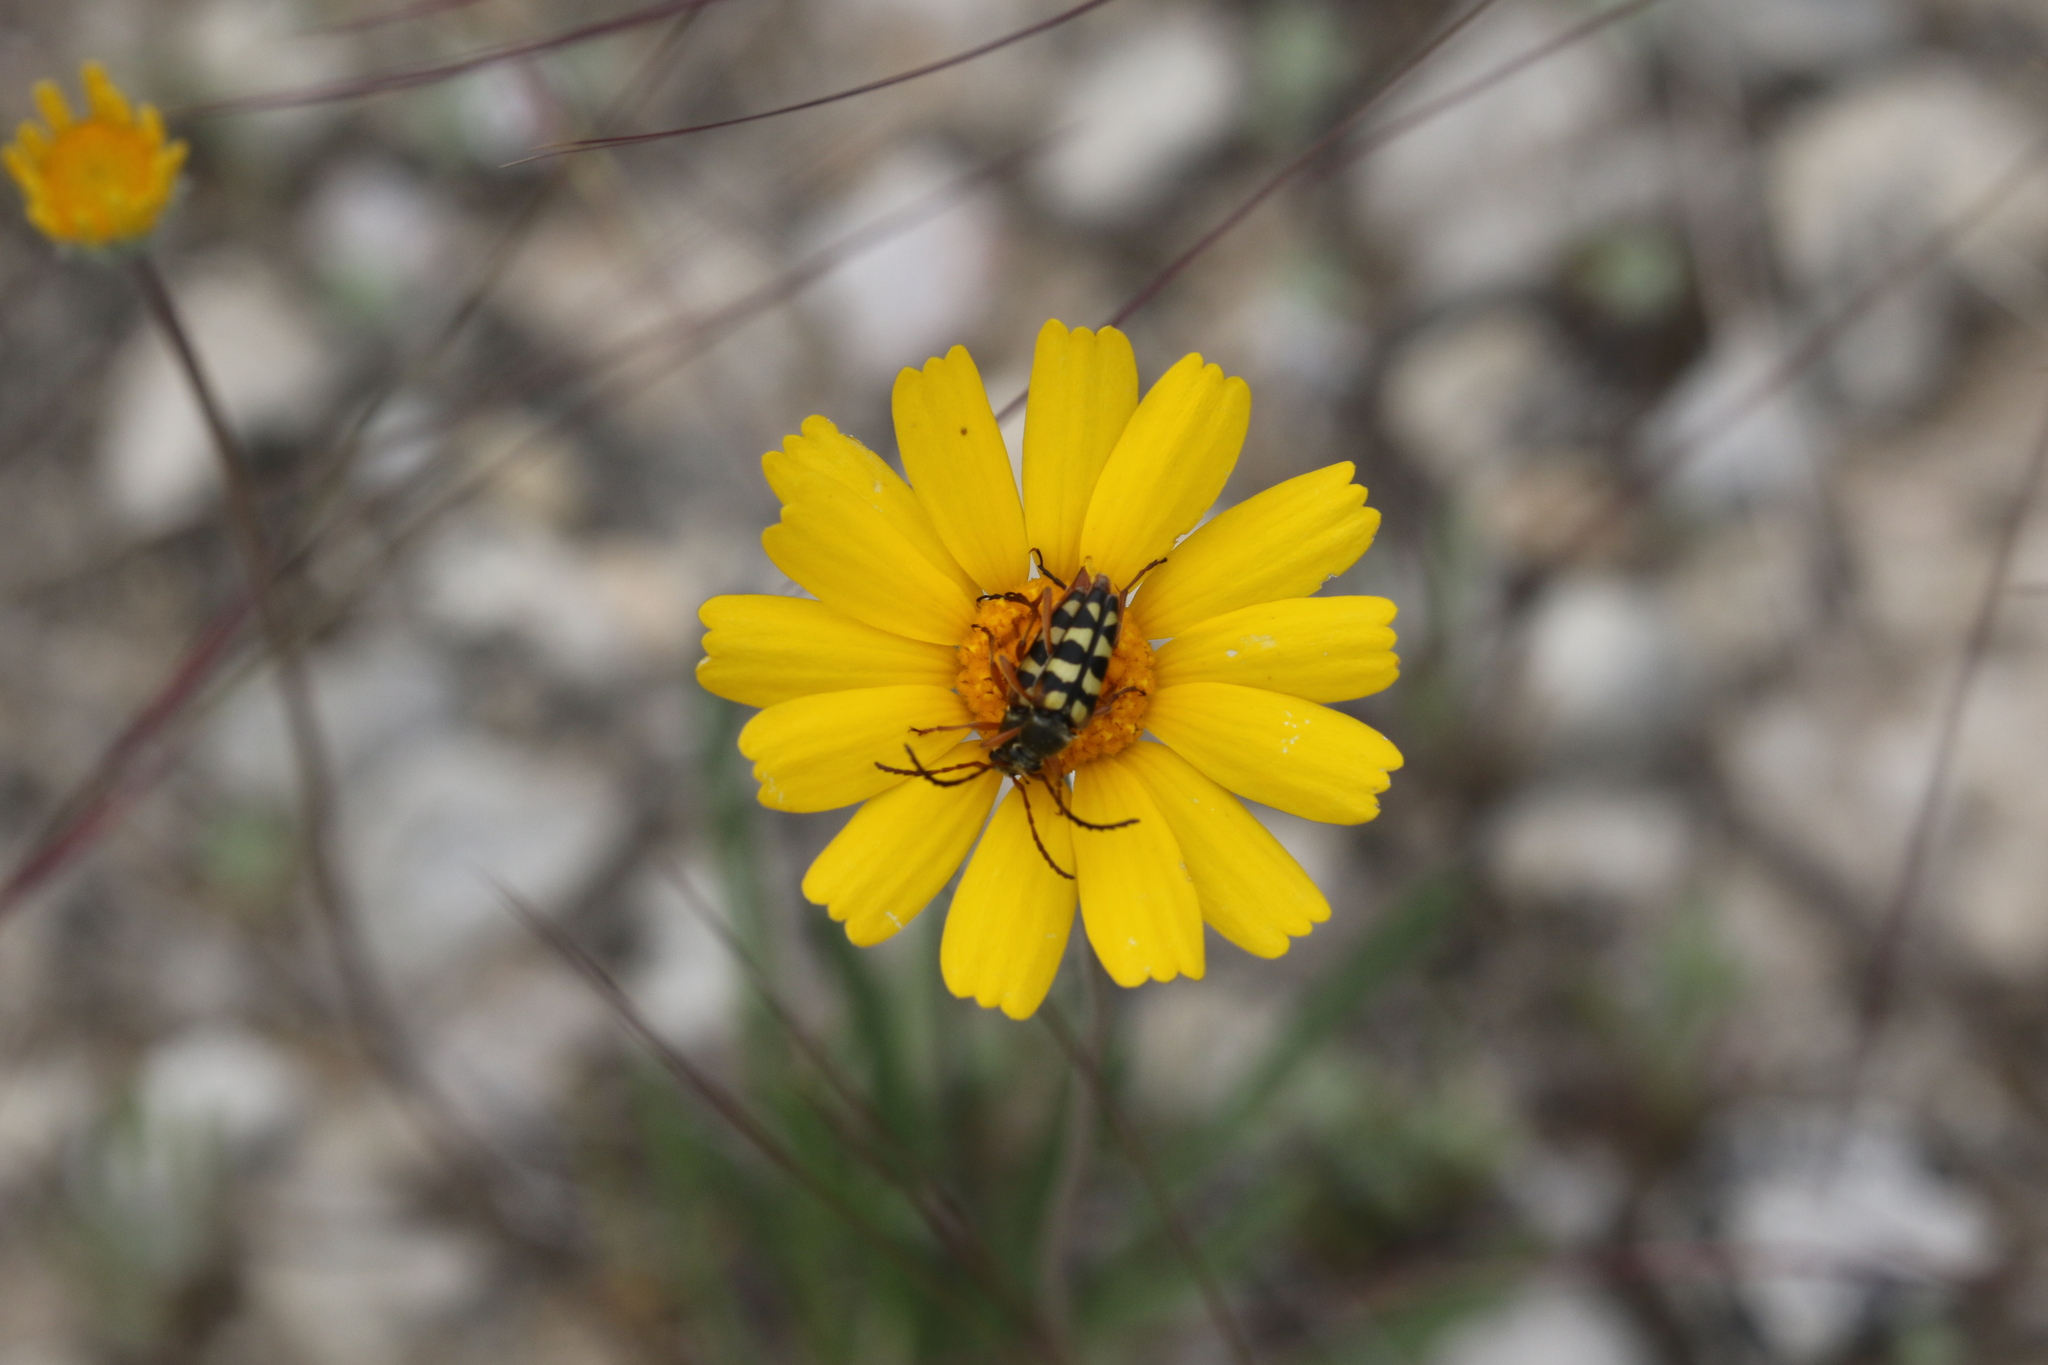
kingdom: Animalia
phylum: Arthropoda
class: Insecta
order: Coleoptera
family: Cerambycidae
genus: Typocerus
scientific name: Typocerus sinuatus
